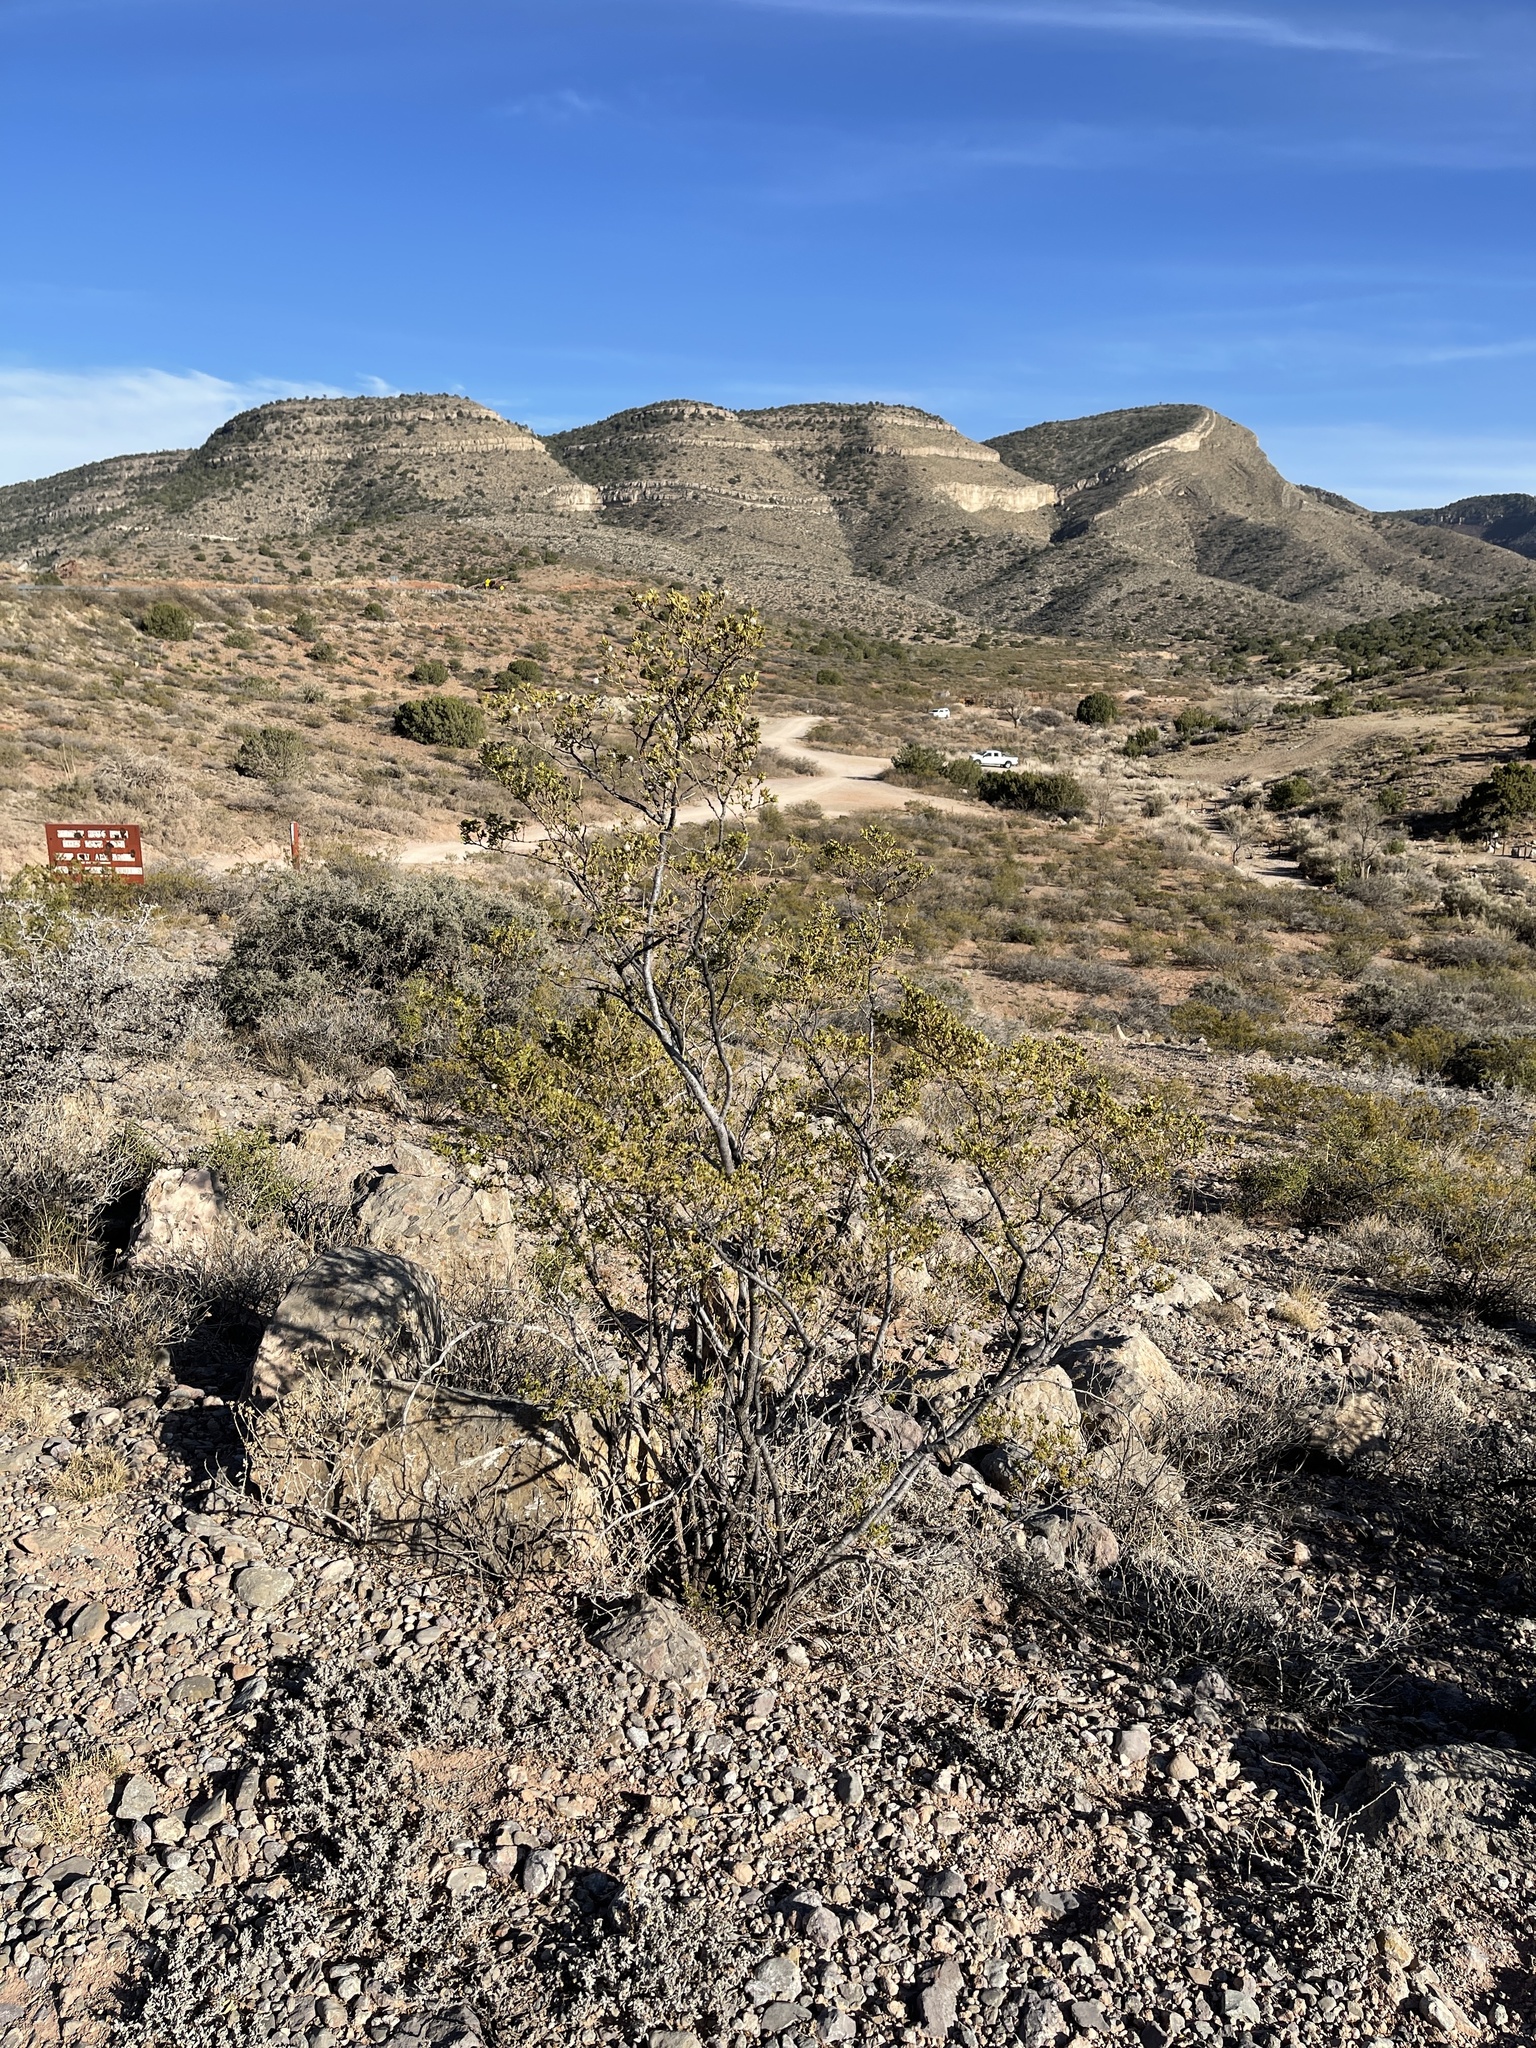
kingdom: Plantae
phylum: Tracheophyta
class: Magnoliopsida
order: Zygophyllales
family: Zygophyllaceae
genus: Larrea
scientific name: Larrea tridentata
